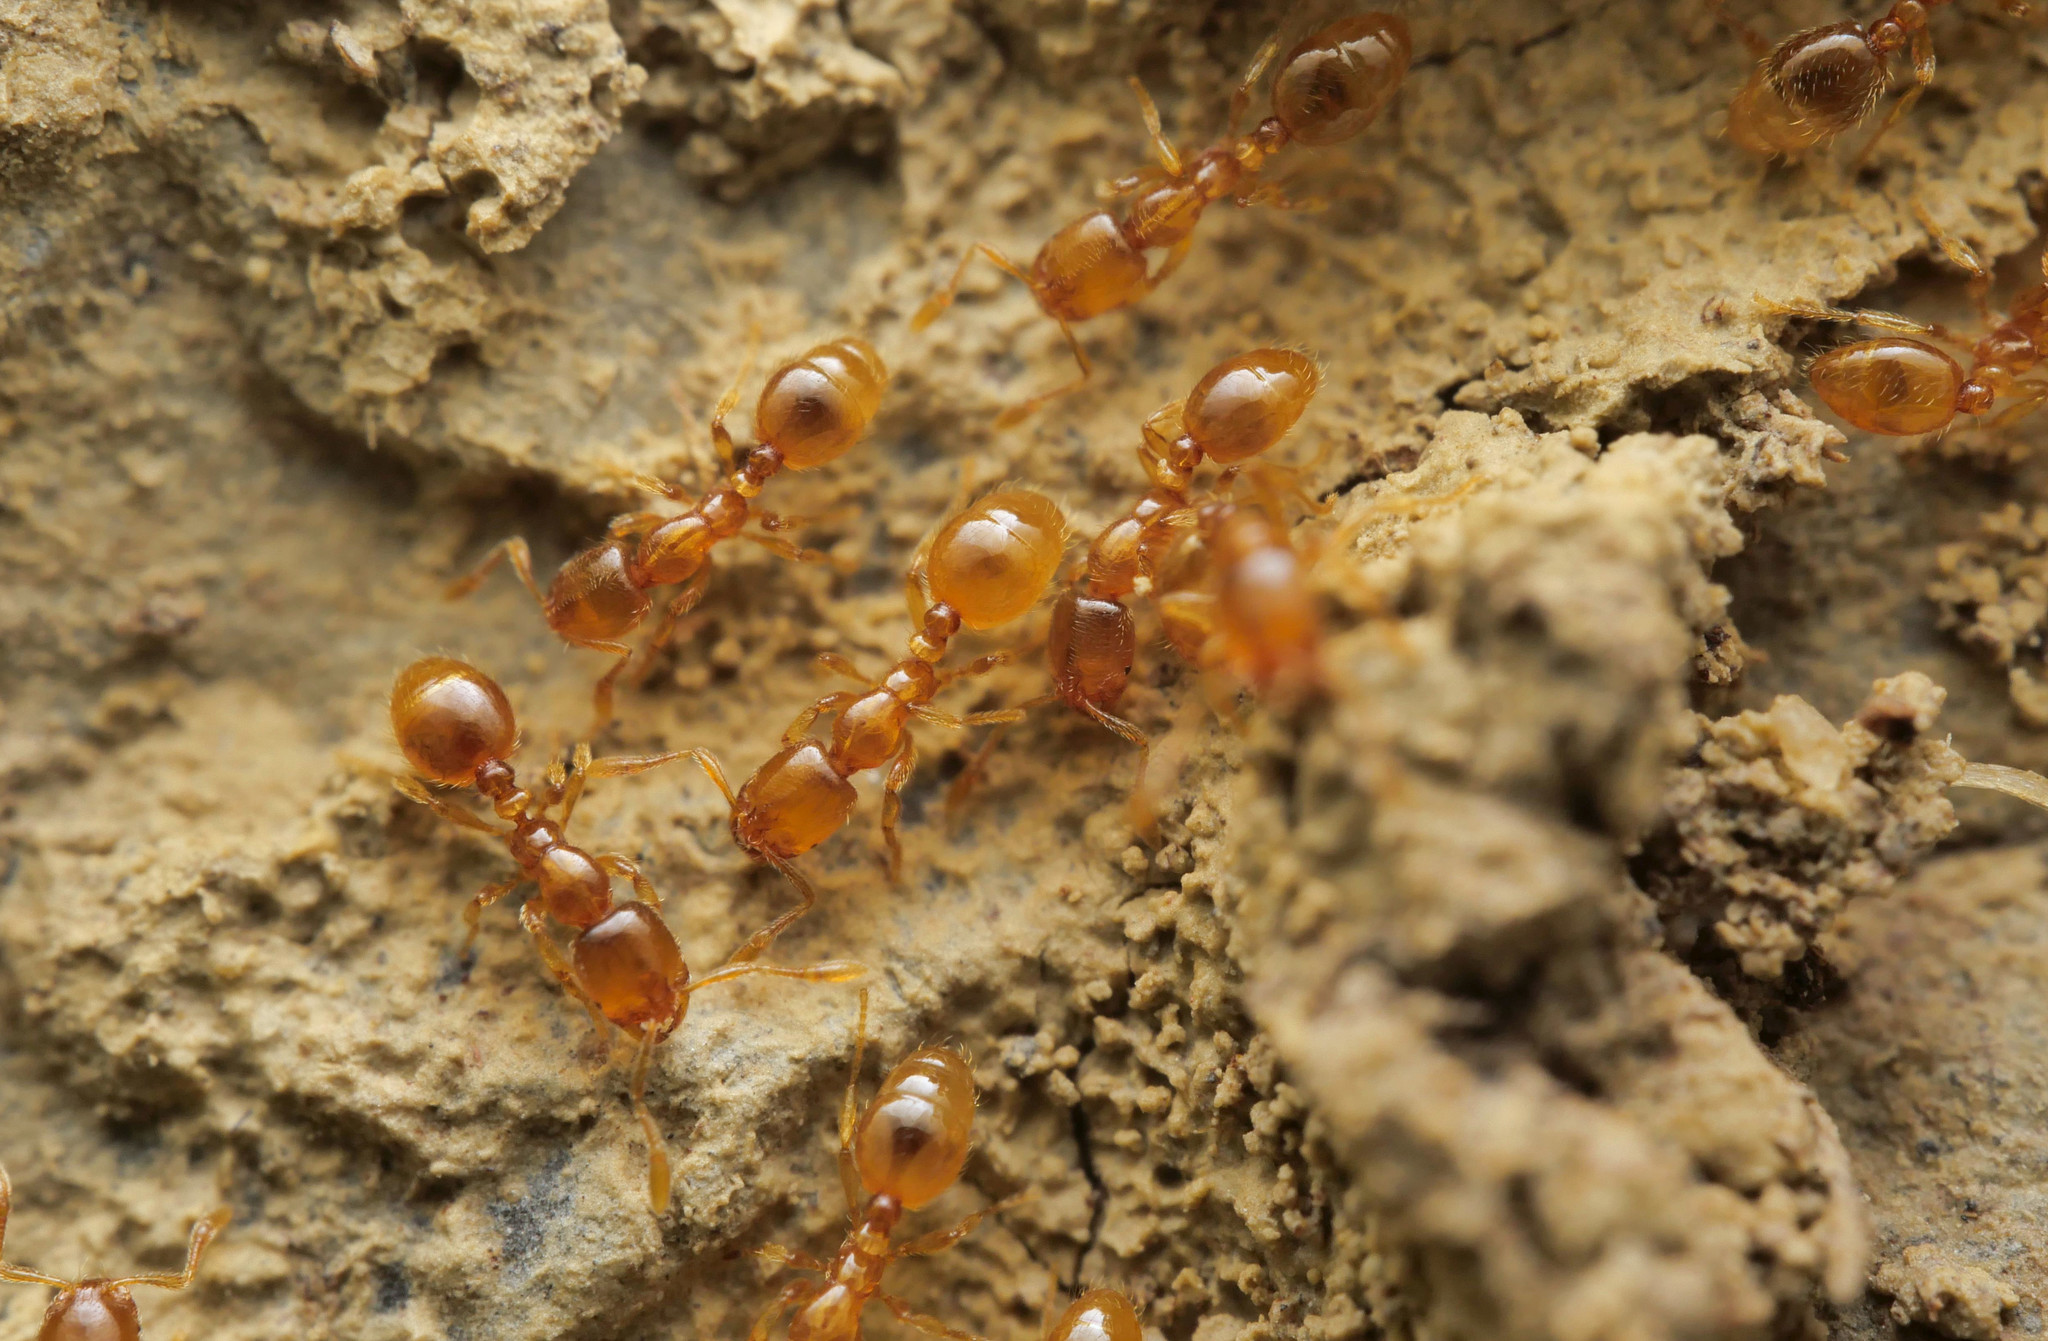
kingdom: Animalia
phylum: Arthropoda
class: Insecta
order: Hymenoptera
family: Formicidae
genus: Solenopsis
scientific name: Solenopsis fugax
